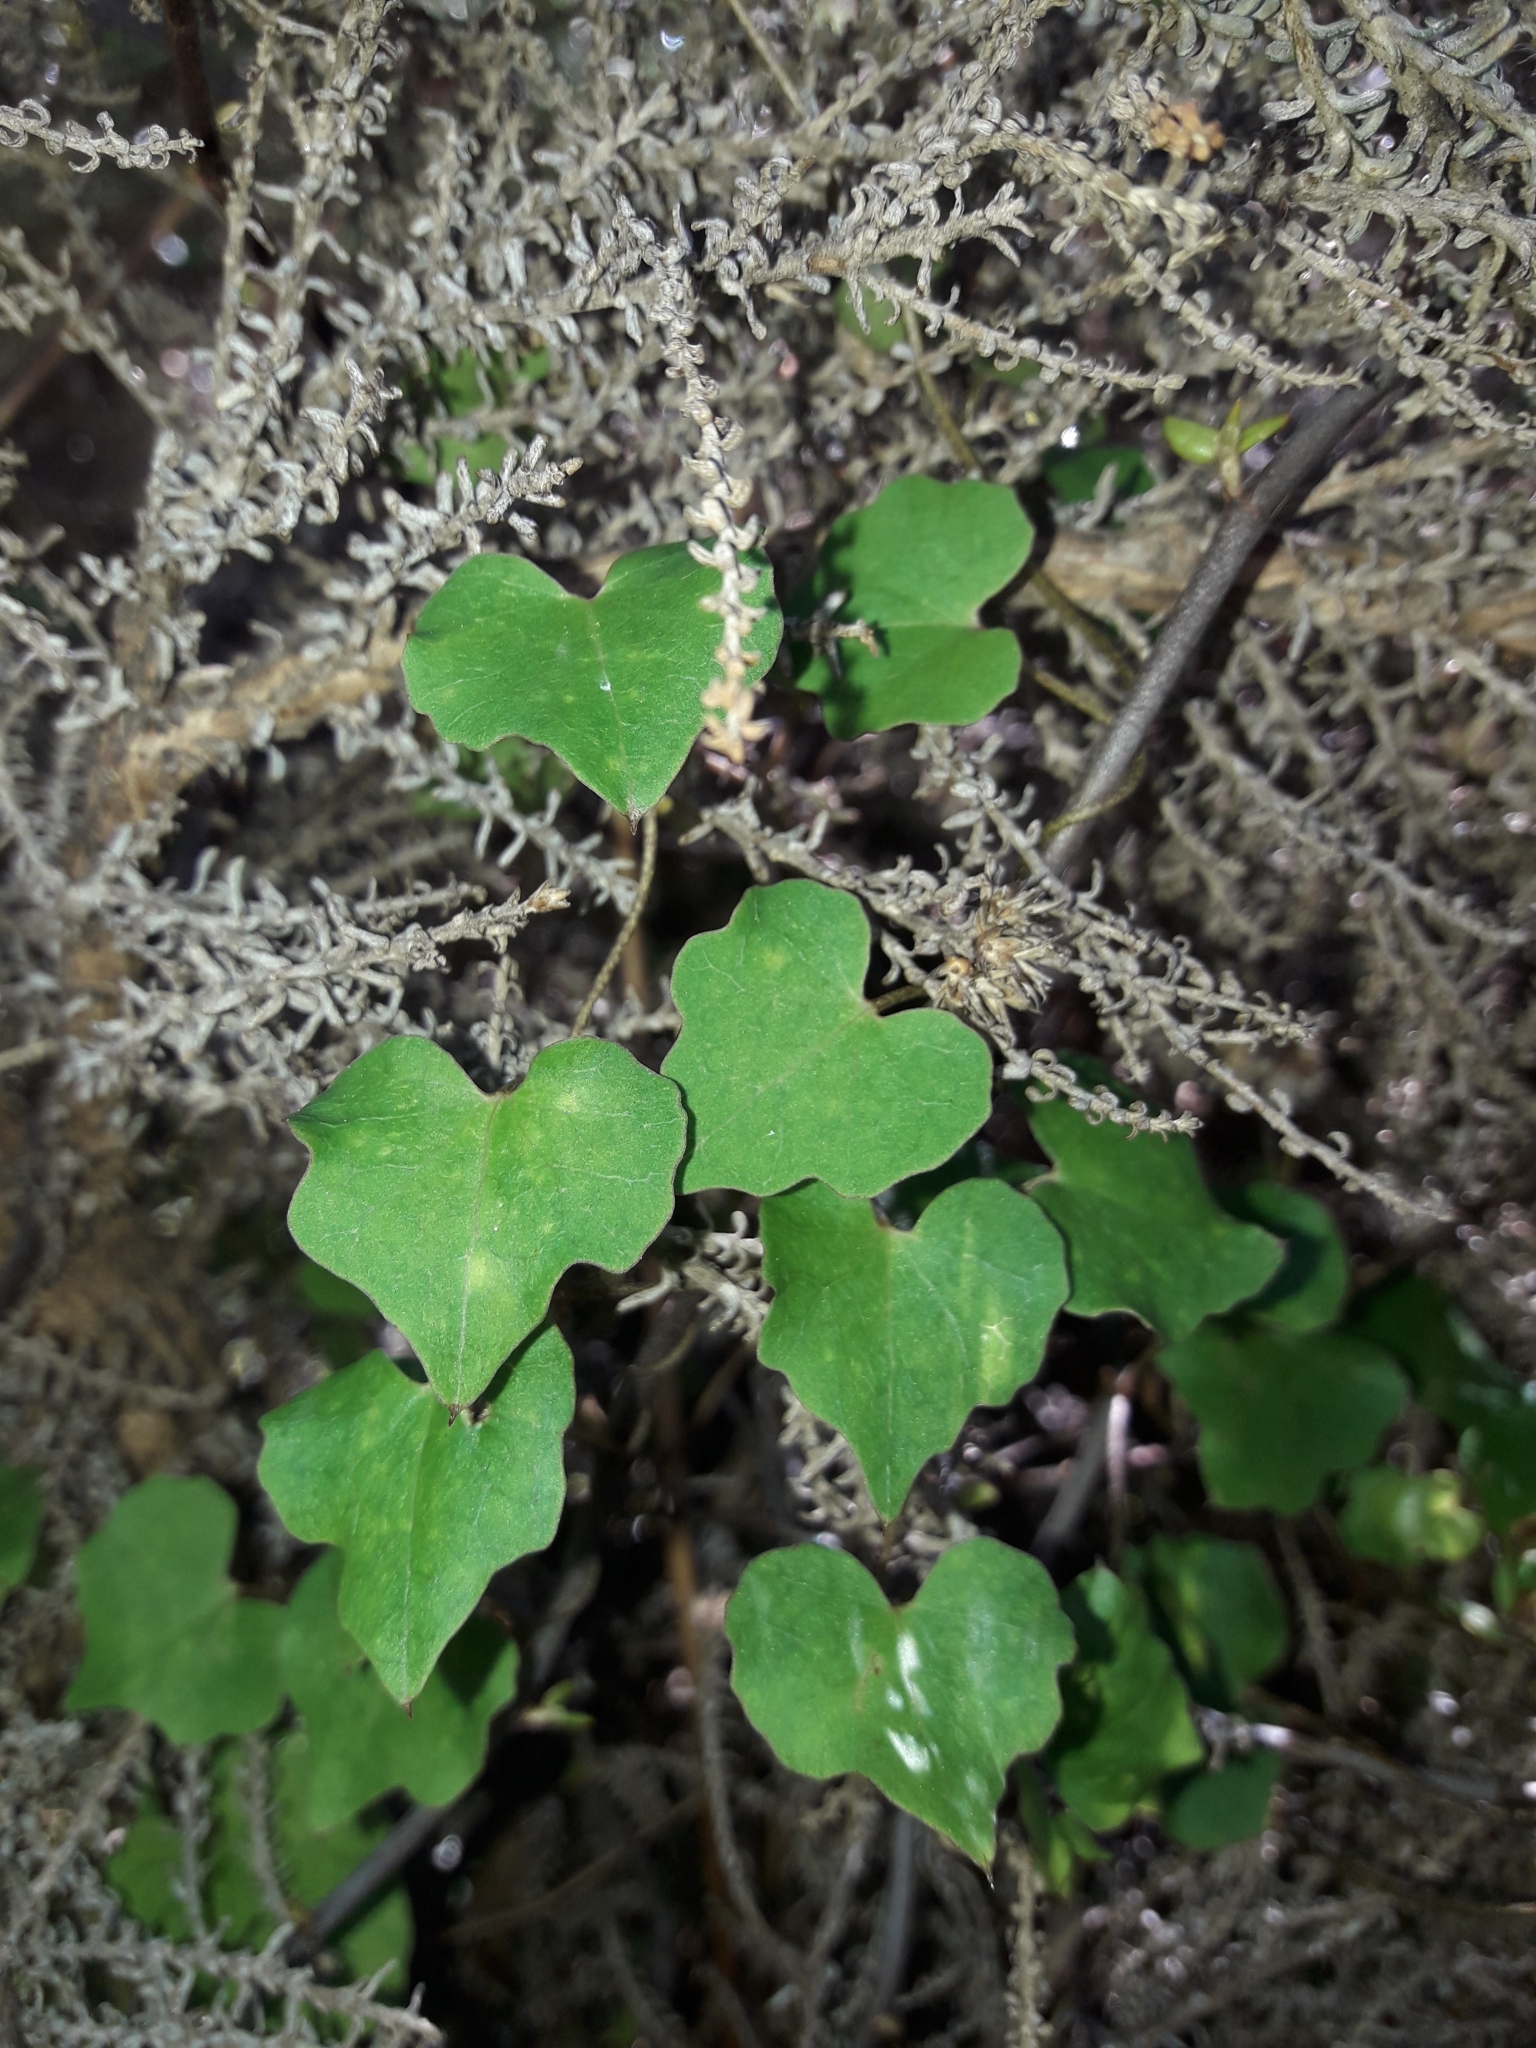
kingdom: Plantae
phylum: Tracheophyta
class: Magnoliopsida
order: Solanales
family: Convolvulaceae
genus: Calystegia
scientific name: Calystegia tuguriorum
